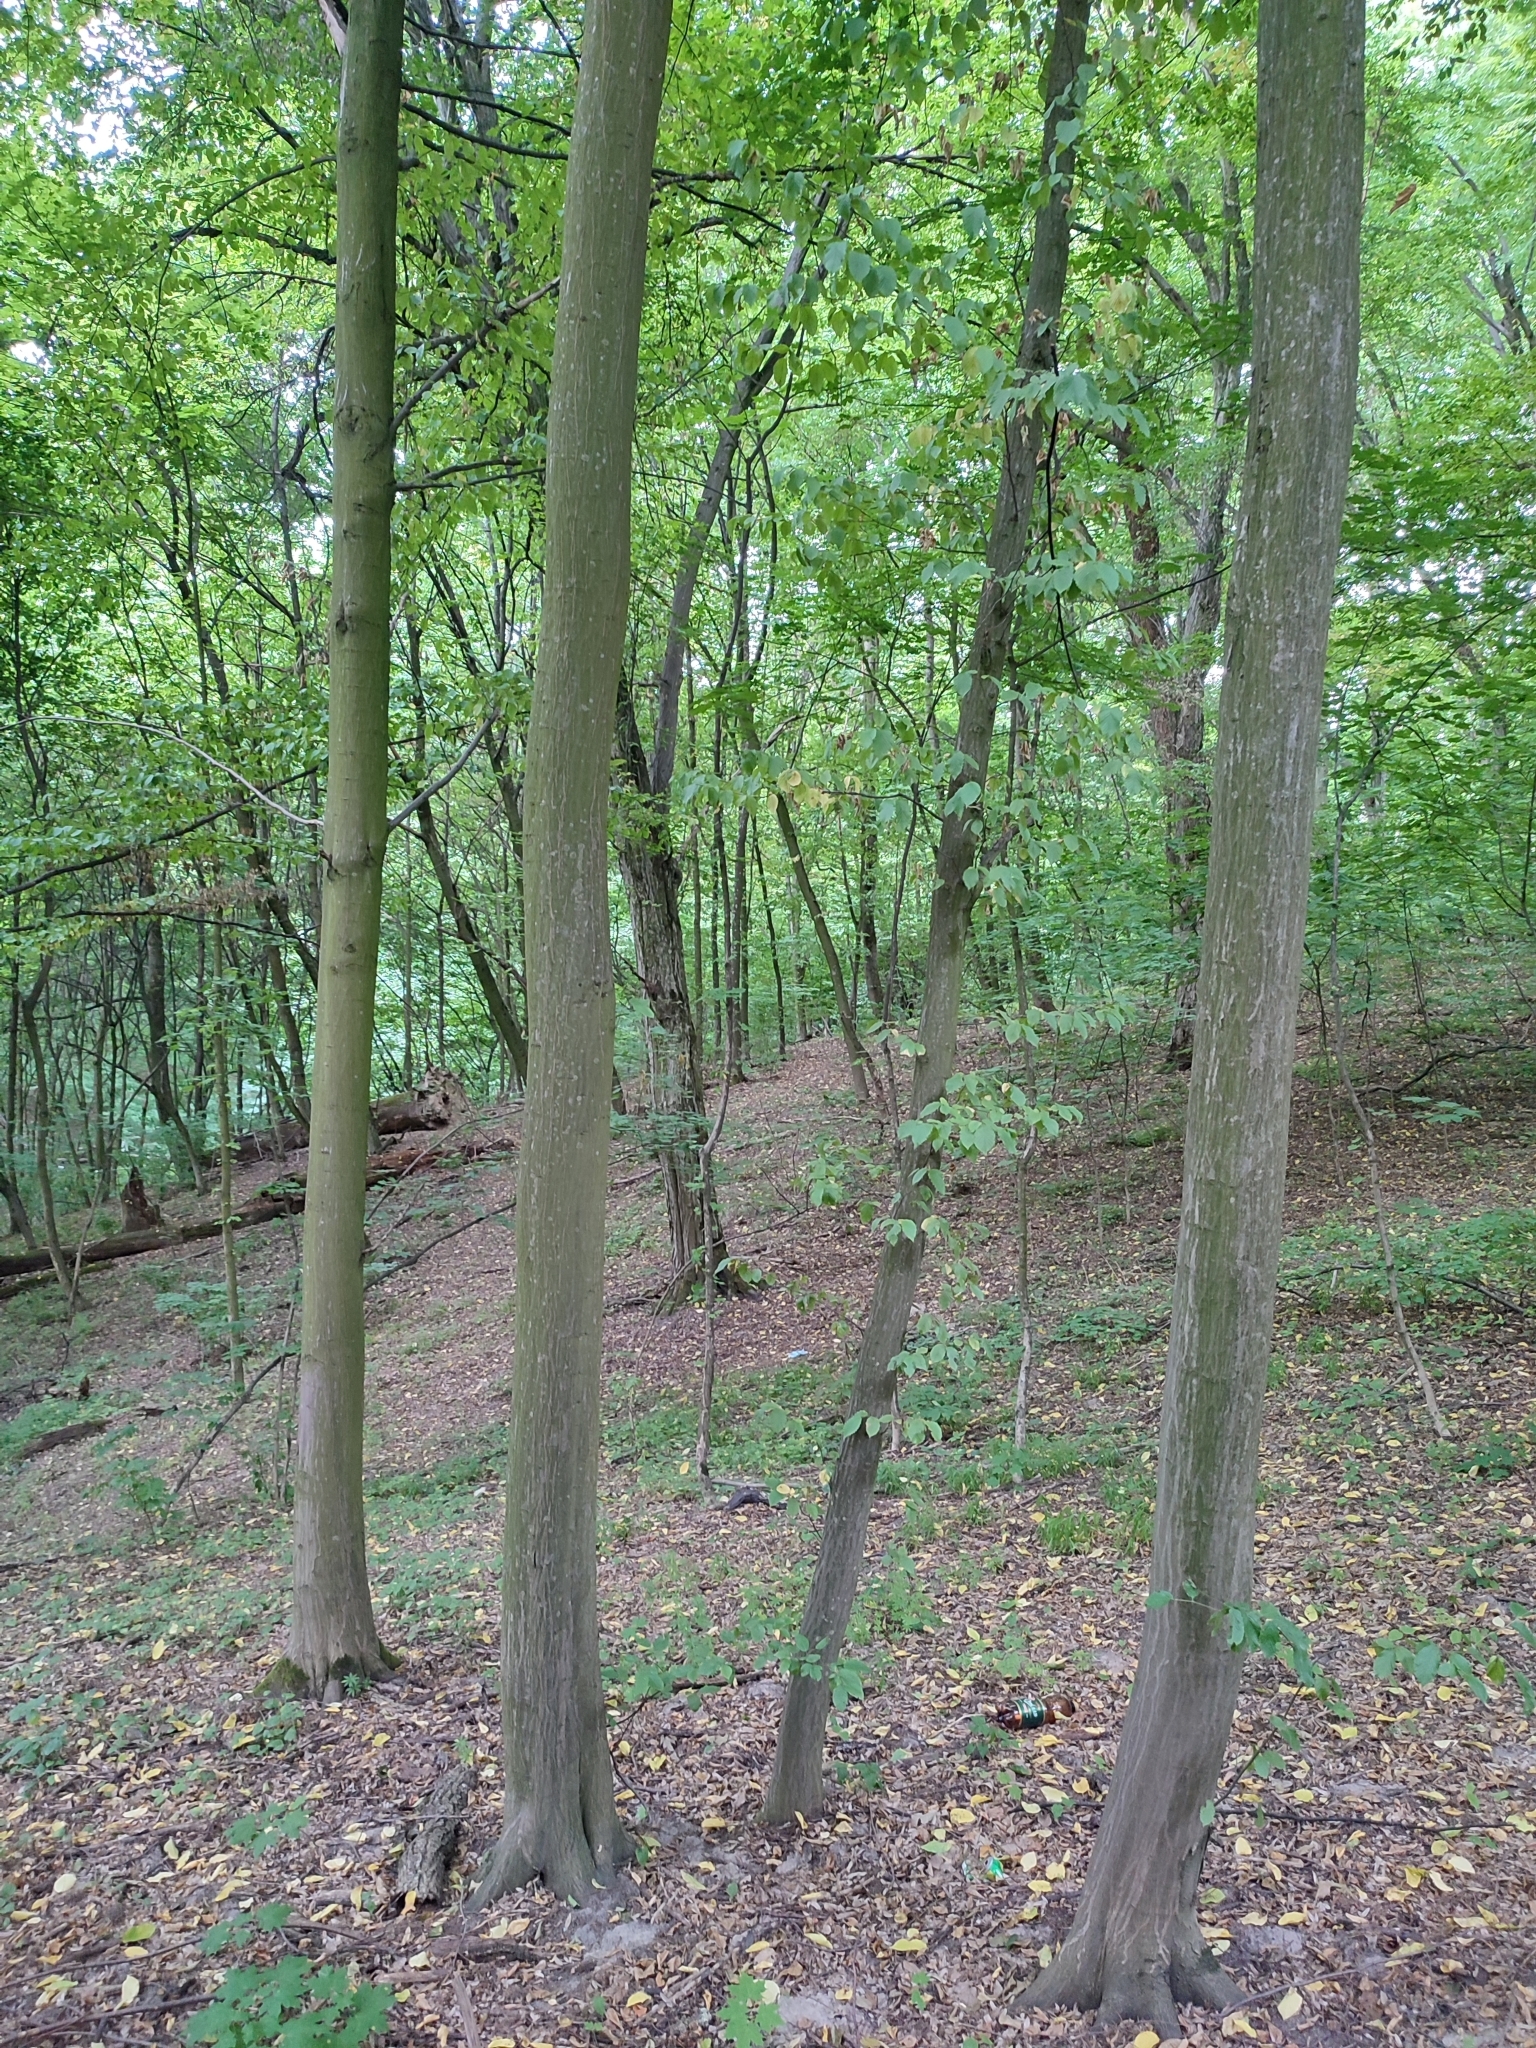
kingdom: Plantae
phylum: Tracheophyta
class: Magnoliopsida
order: Fagales
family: Betulaceae
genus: Carpinus
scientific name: Carpinus betulus
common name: Hornbeam
